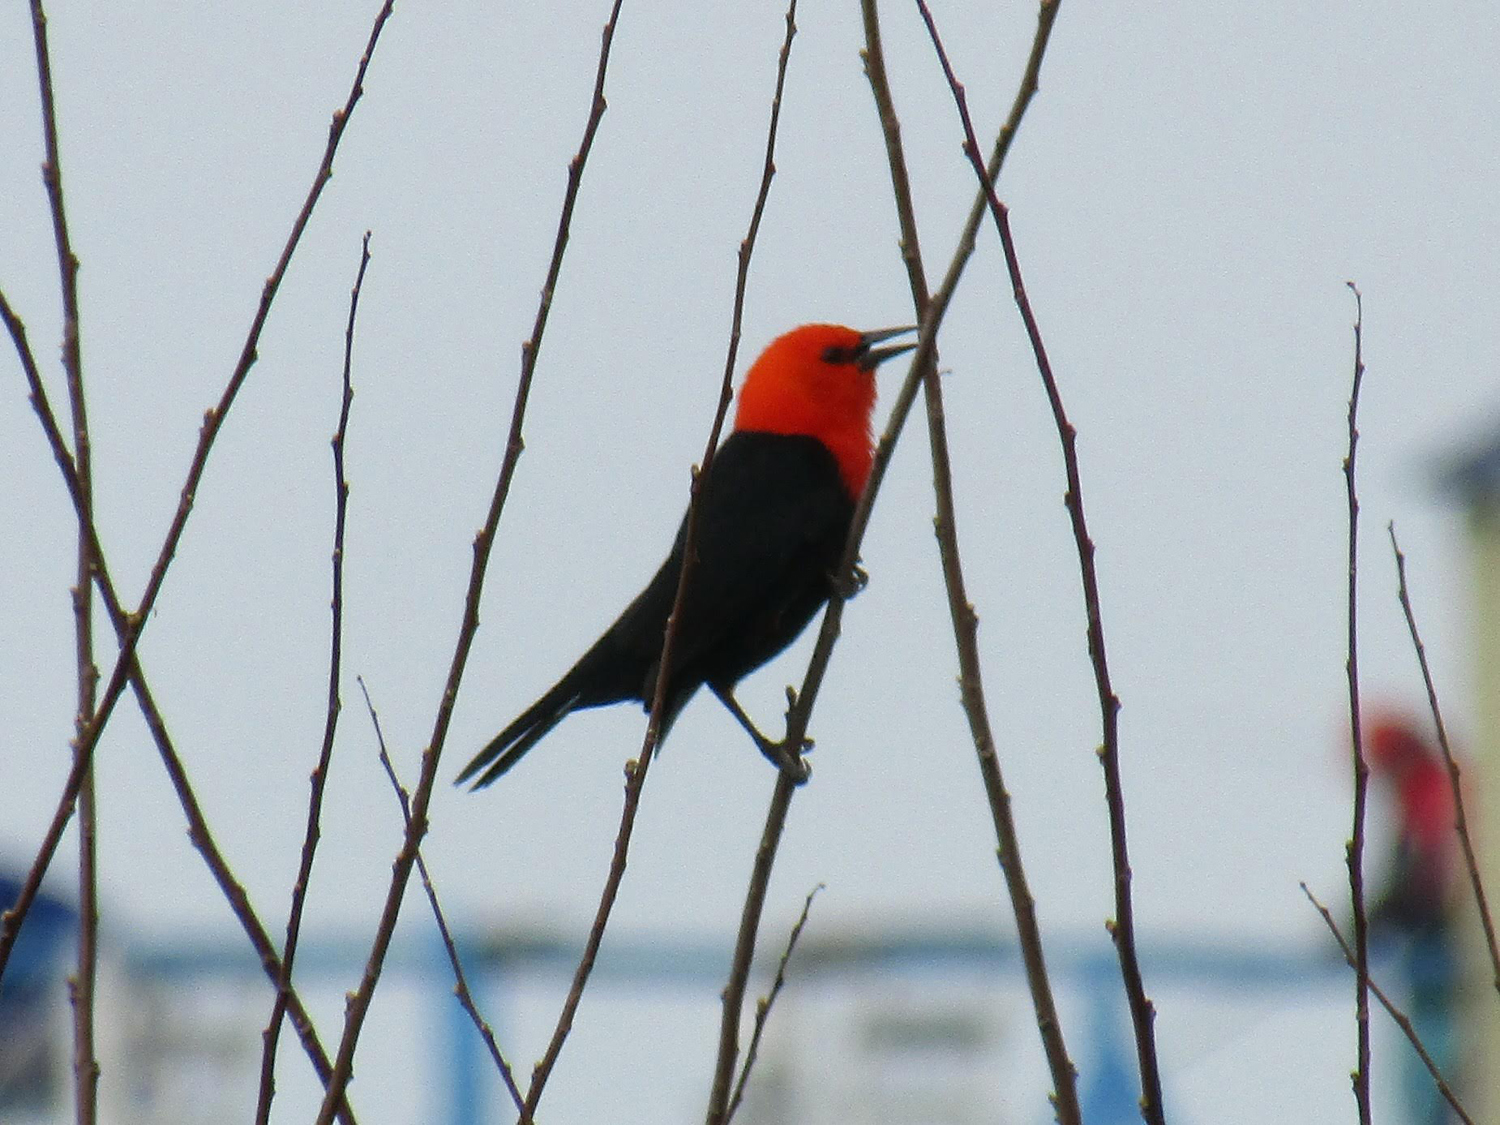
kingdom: Animalia
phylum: Chordata
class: Aves
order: Passeriformes
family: Icteridae
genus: Amblyramphus
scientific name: Amblyramphus holosericeus
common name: Scarlet-headed blackbird
